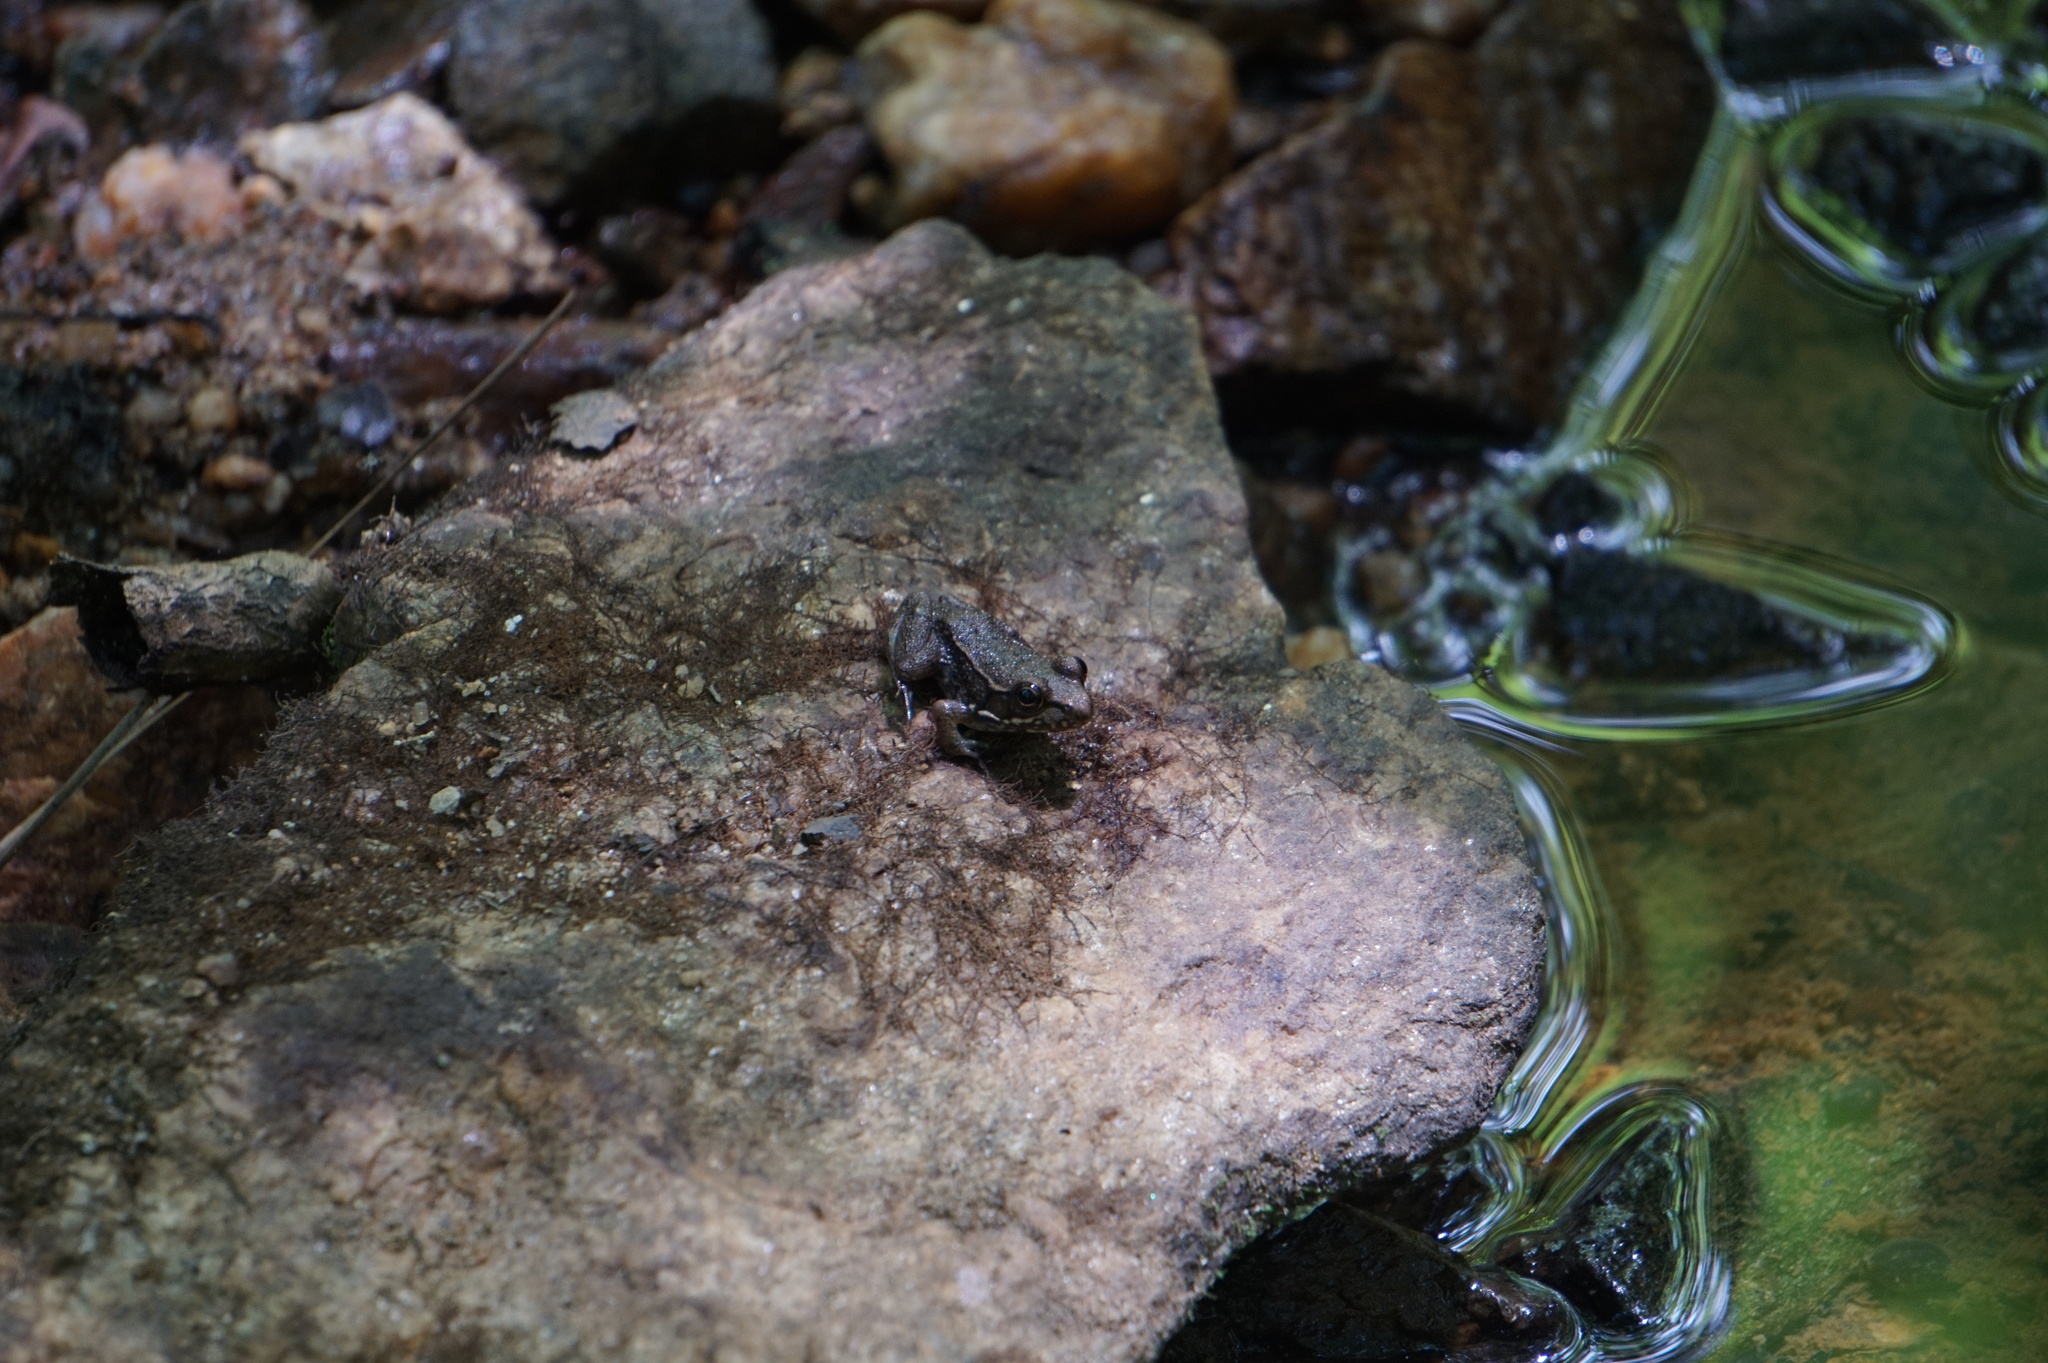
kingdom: Animalia
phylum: Chordata
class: Amphibia
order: Anura
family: Ranidae
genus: Lithobates
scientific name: Lithobates clamitans
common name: Green frog
